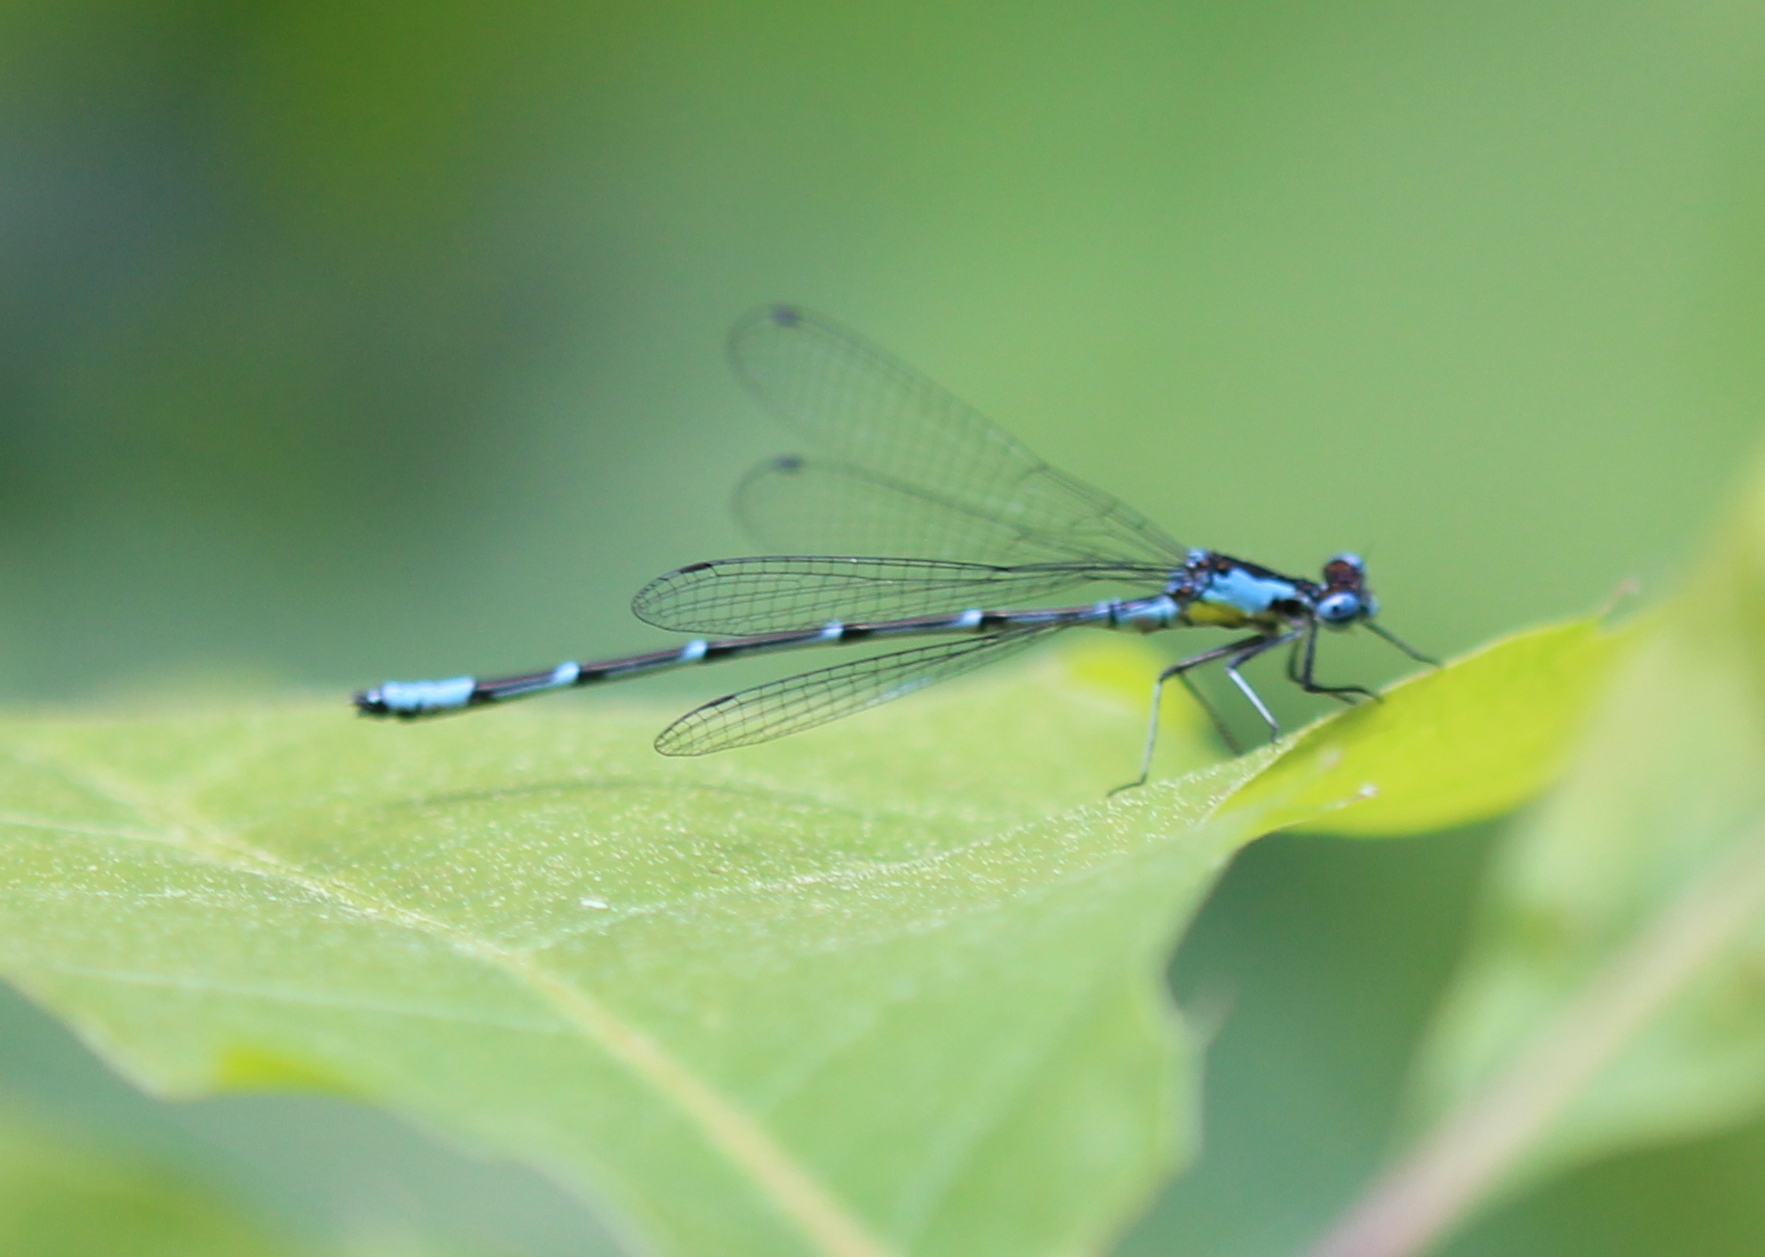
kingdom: Animalia
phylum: Arthropoda
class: Insecta
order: Odonata
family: Coenagrionidae
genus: Chromagrion
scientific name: Chromagrion conditum
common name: Aurora damsel
